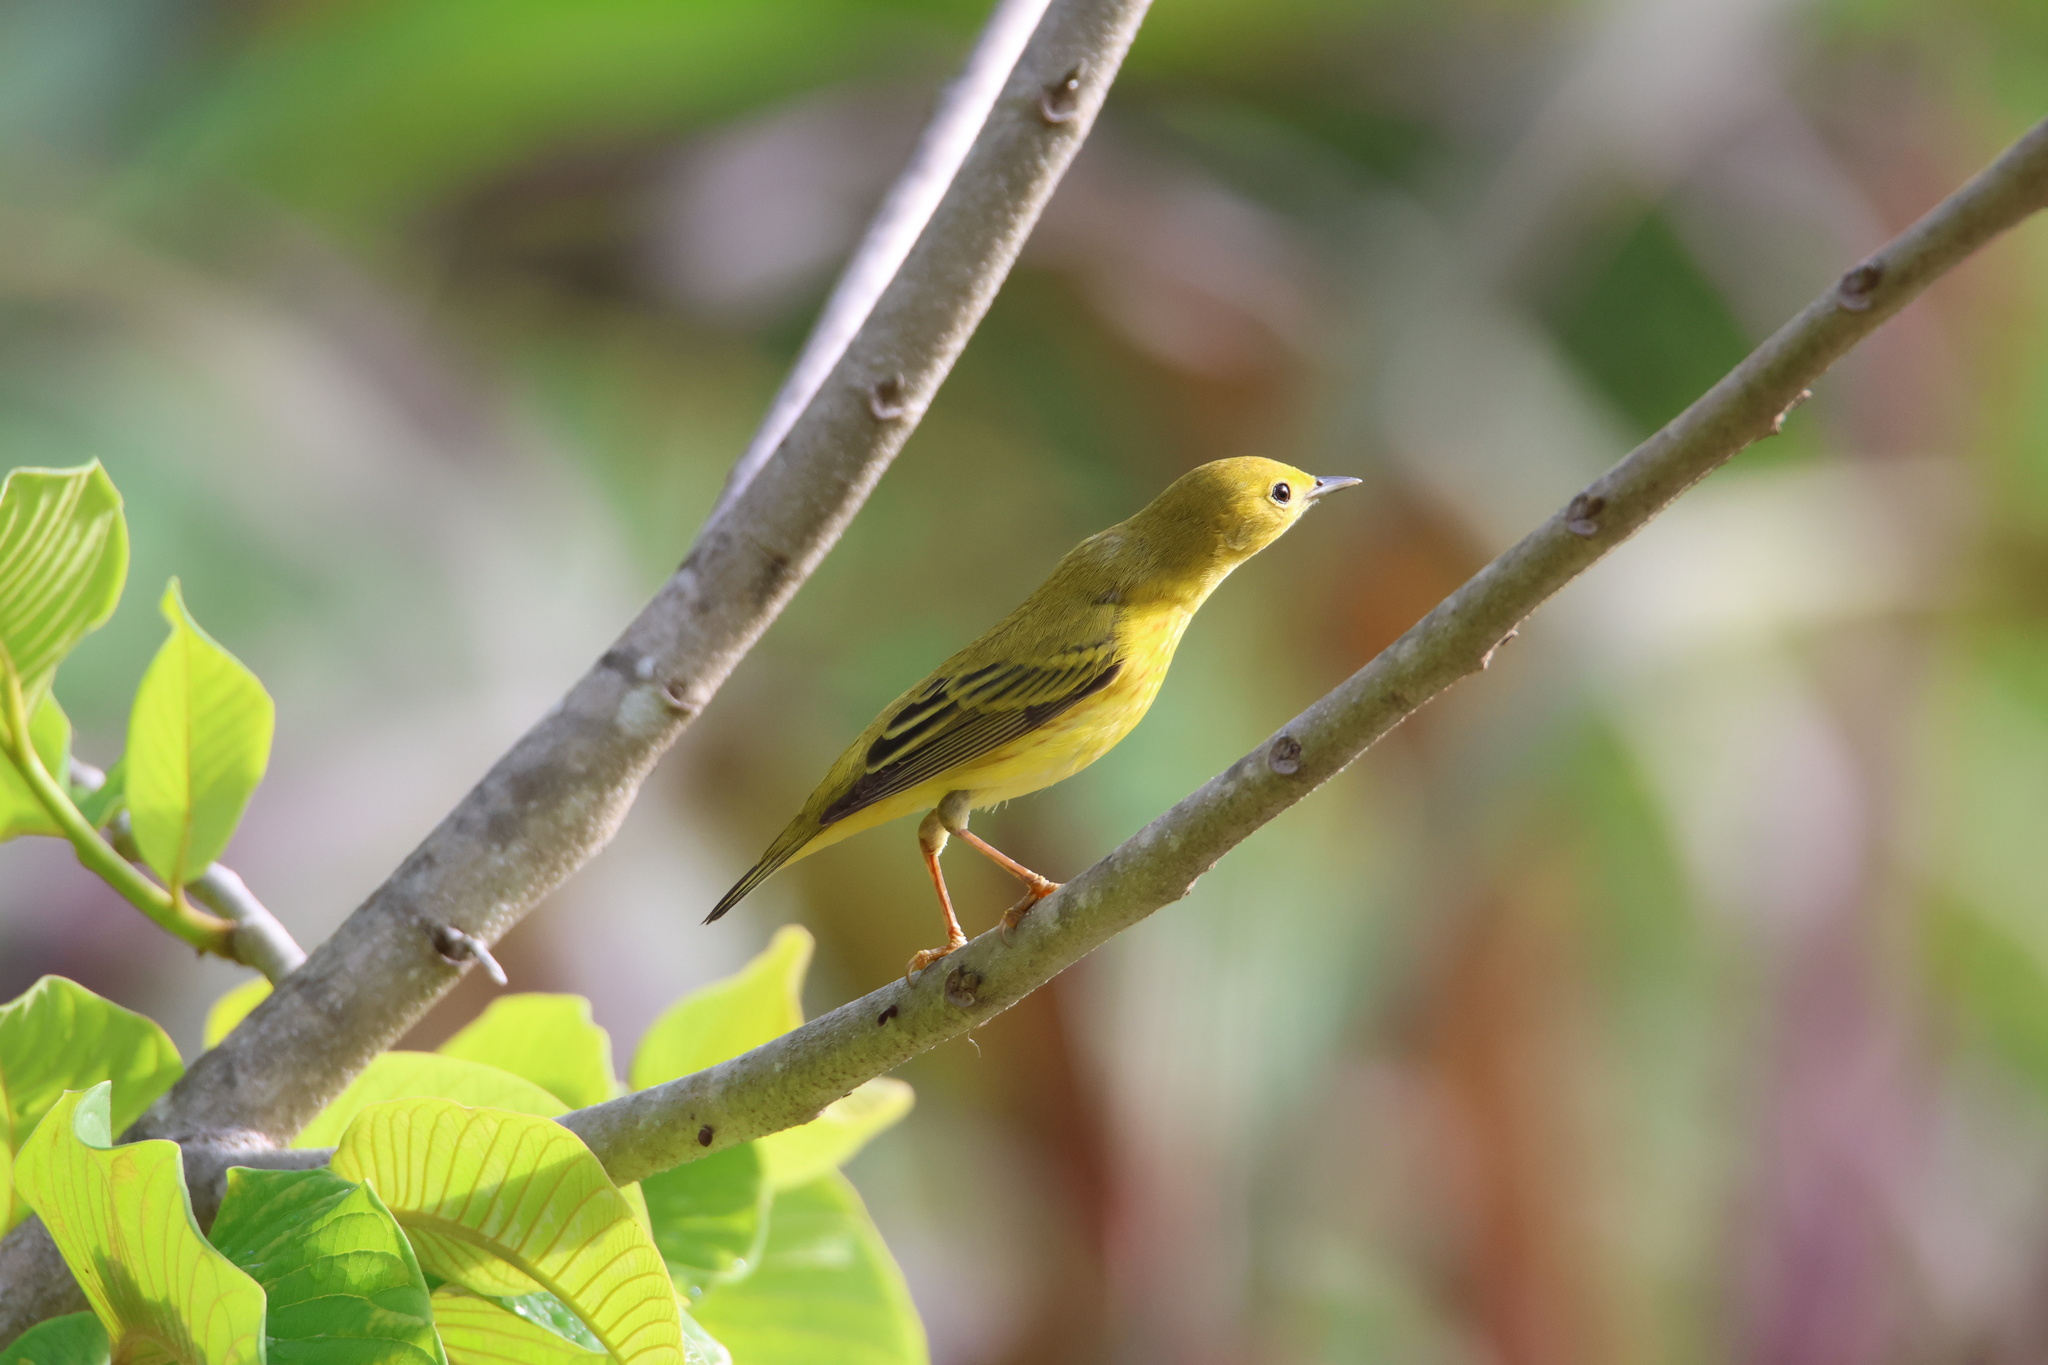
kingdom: Animalia
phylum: Chordata
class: Aves
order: Passeriformes
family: Parulidae
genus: Setophaga
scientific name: Setophaga petechia
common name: Yellow warbler
